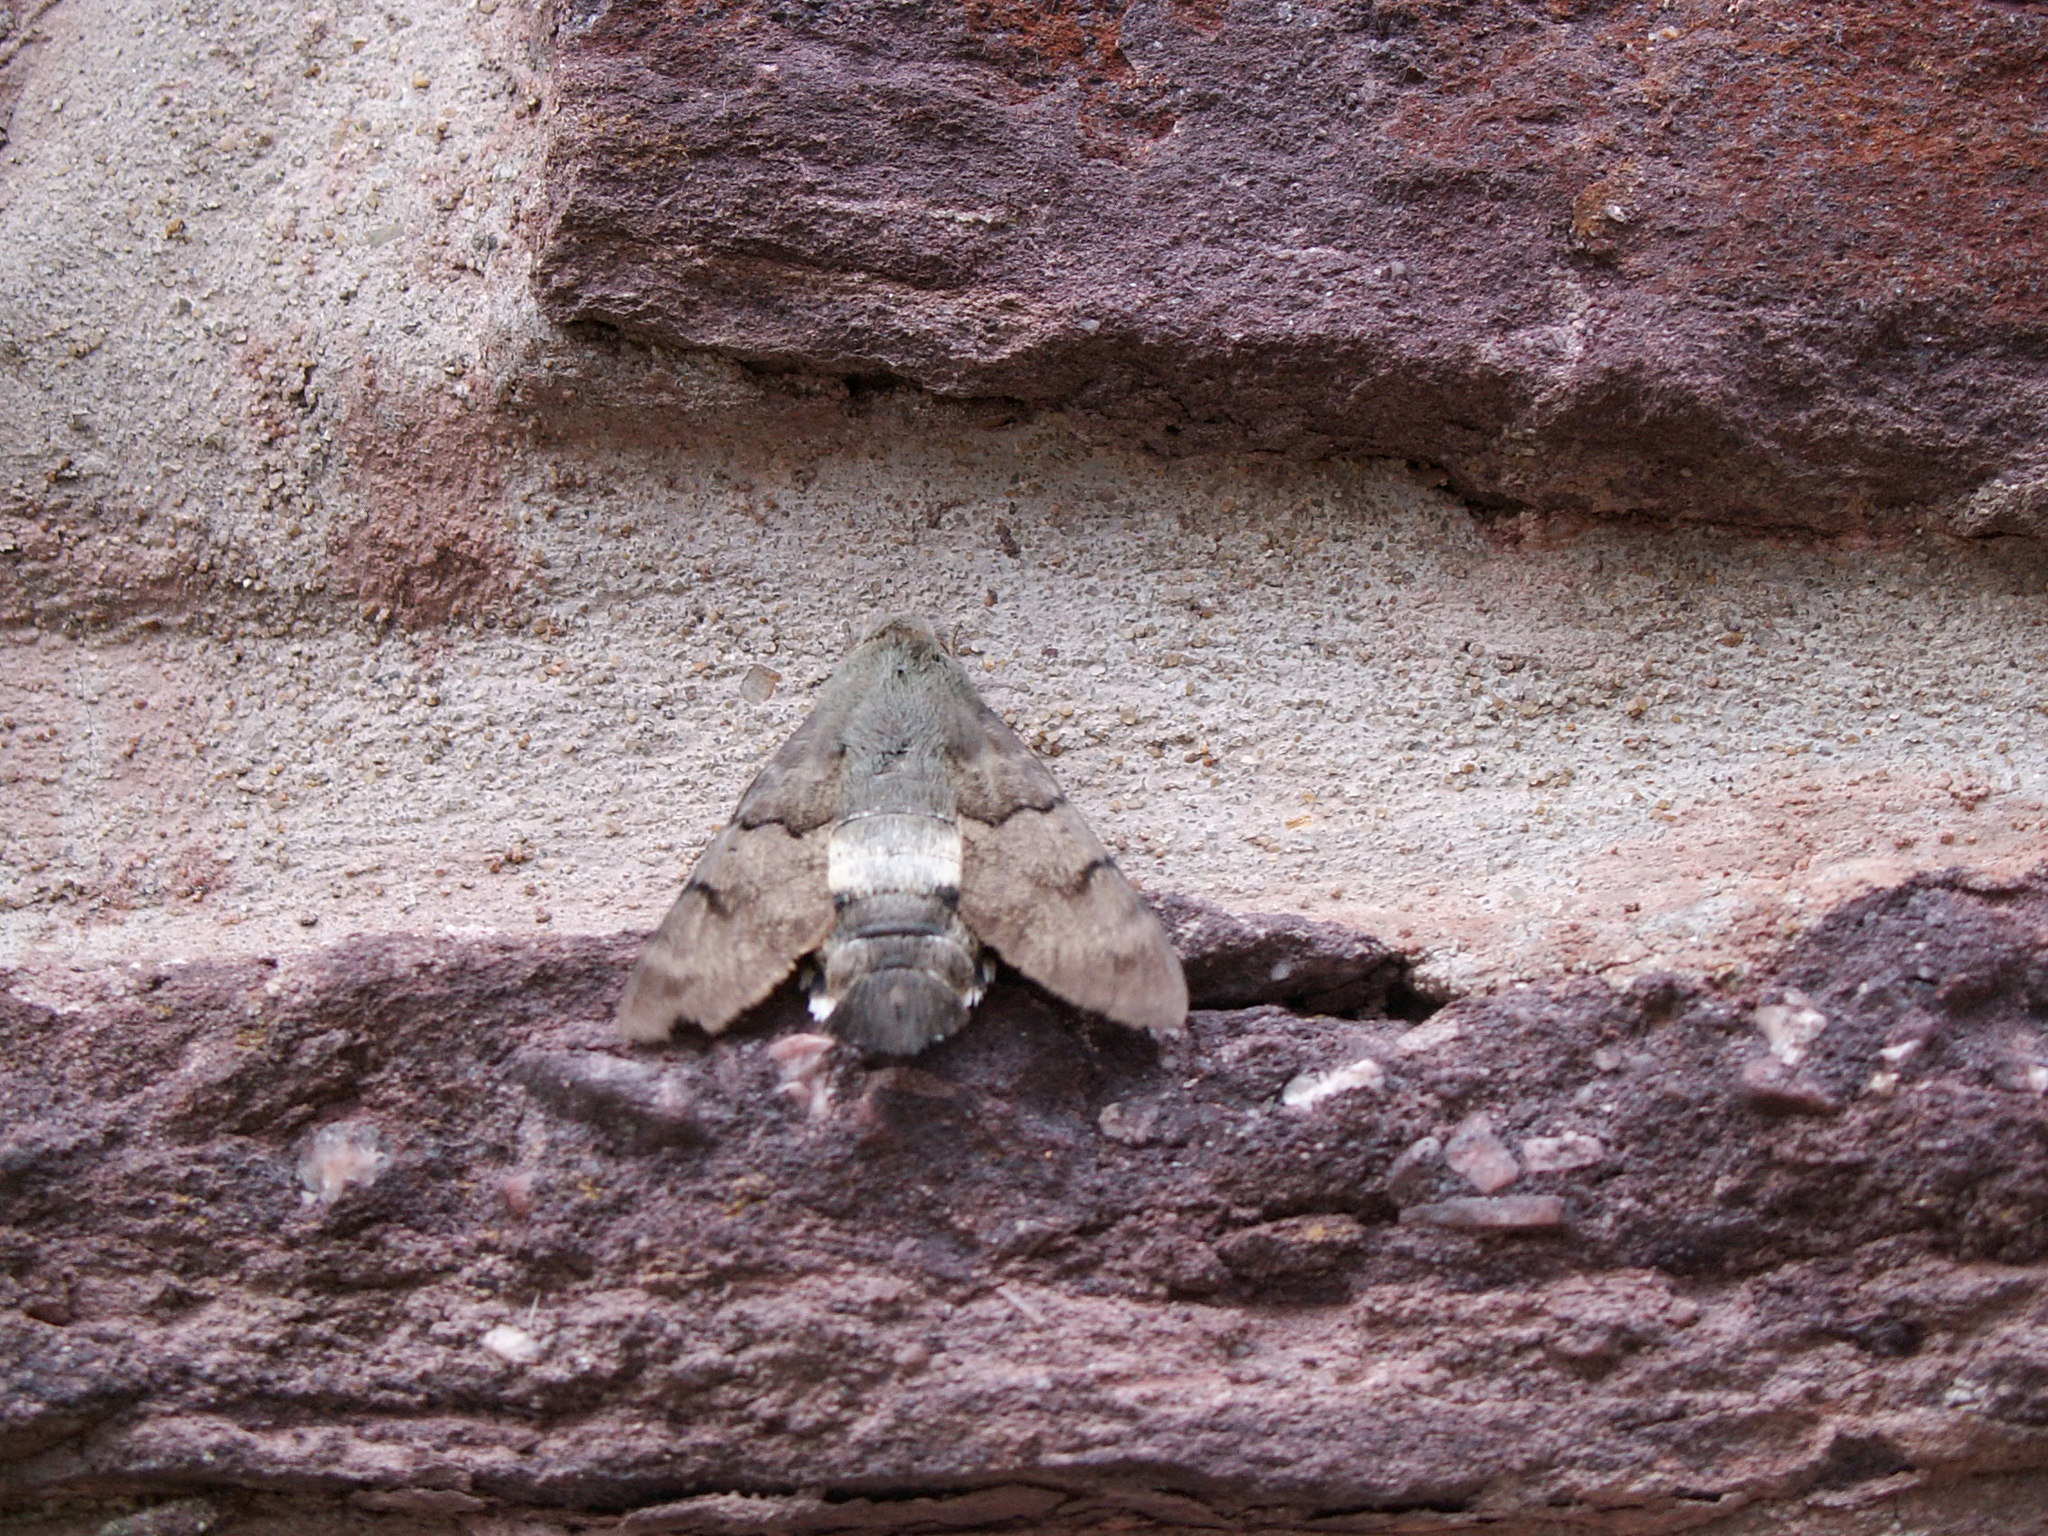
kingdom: Animalia
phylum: Arthropoda
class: Insecta
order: Lepidoptera
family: Sphingidae
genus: Macroglossum
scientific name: Macroglossum stellatarum
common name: Humming-bird hawk-moth
